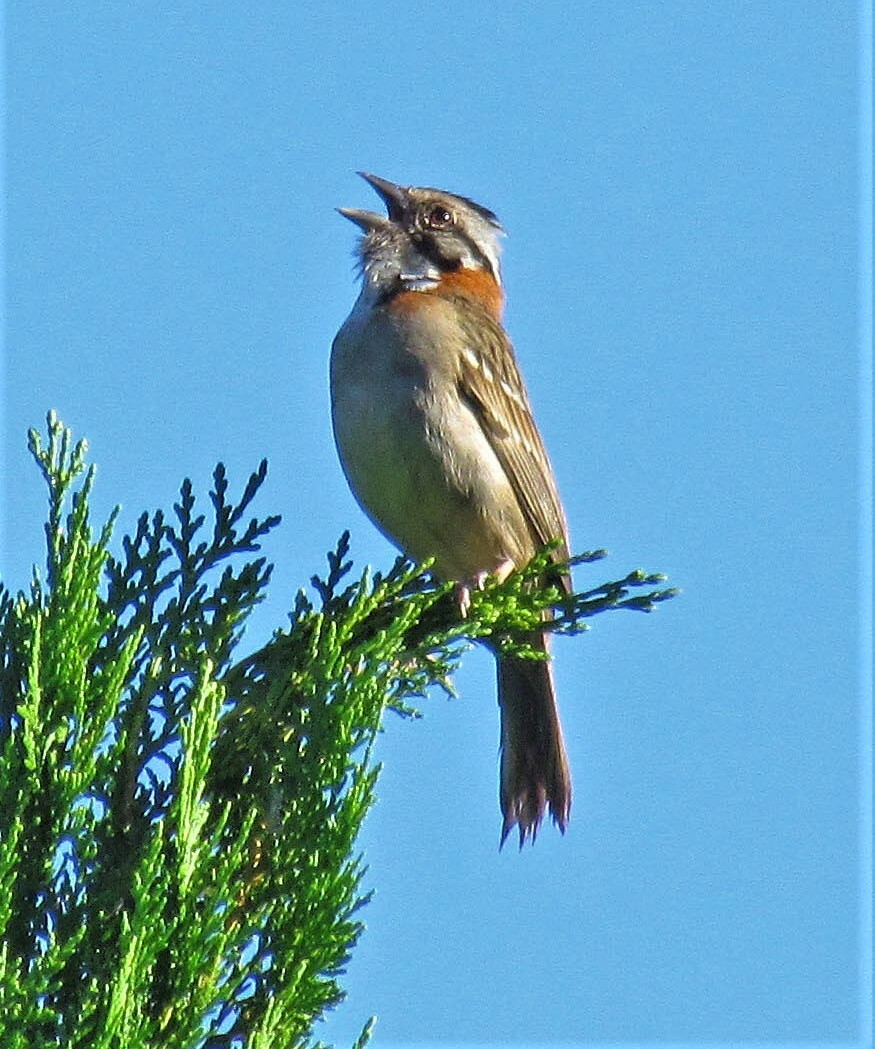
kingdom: Animalia
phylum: Chordata
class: Aves
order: Passeriformes
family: Passerellidae
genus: Zonotrichia
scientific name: Zonotrichia capensis
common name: Rufous-collared sparrow
